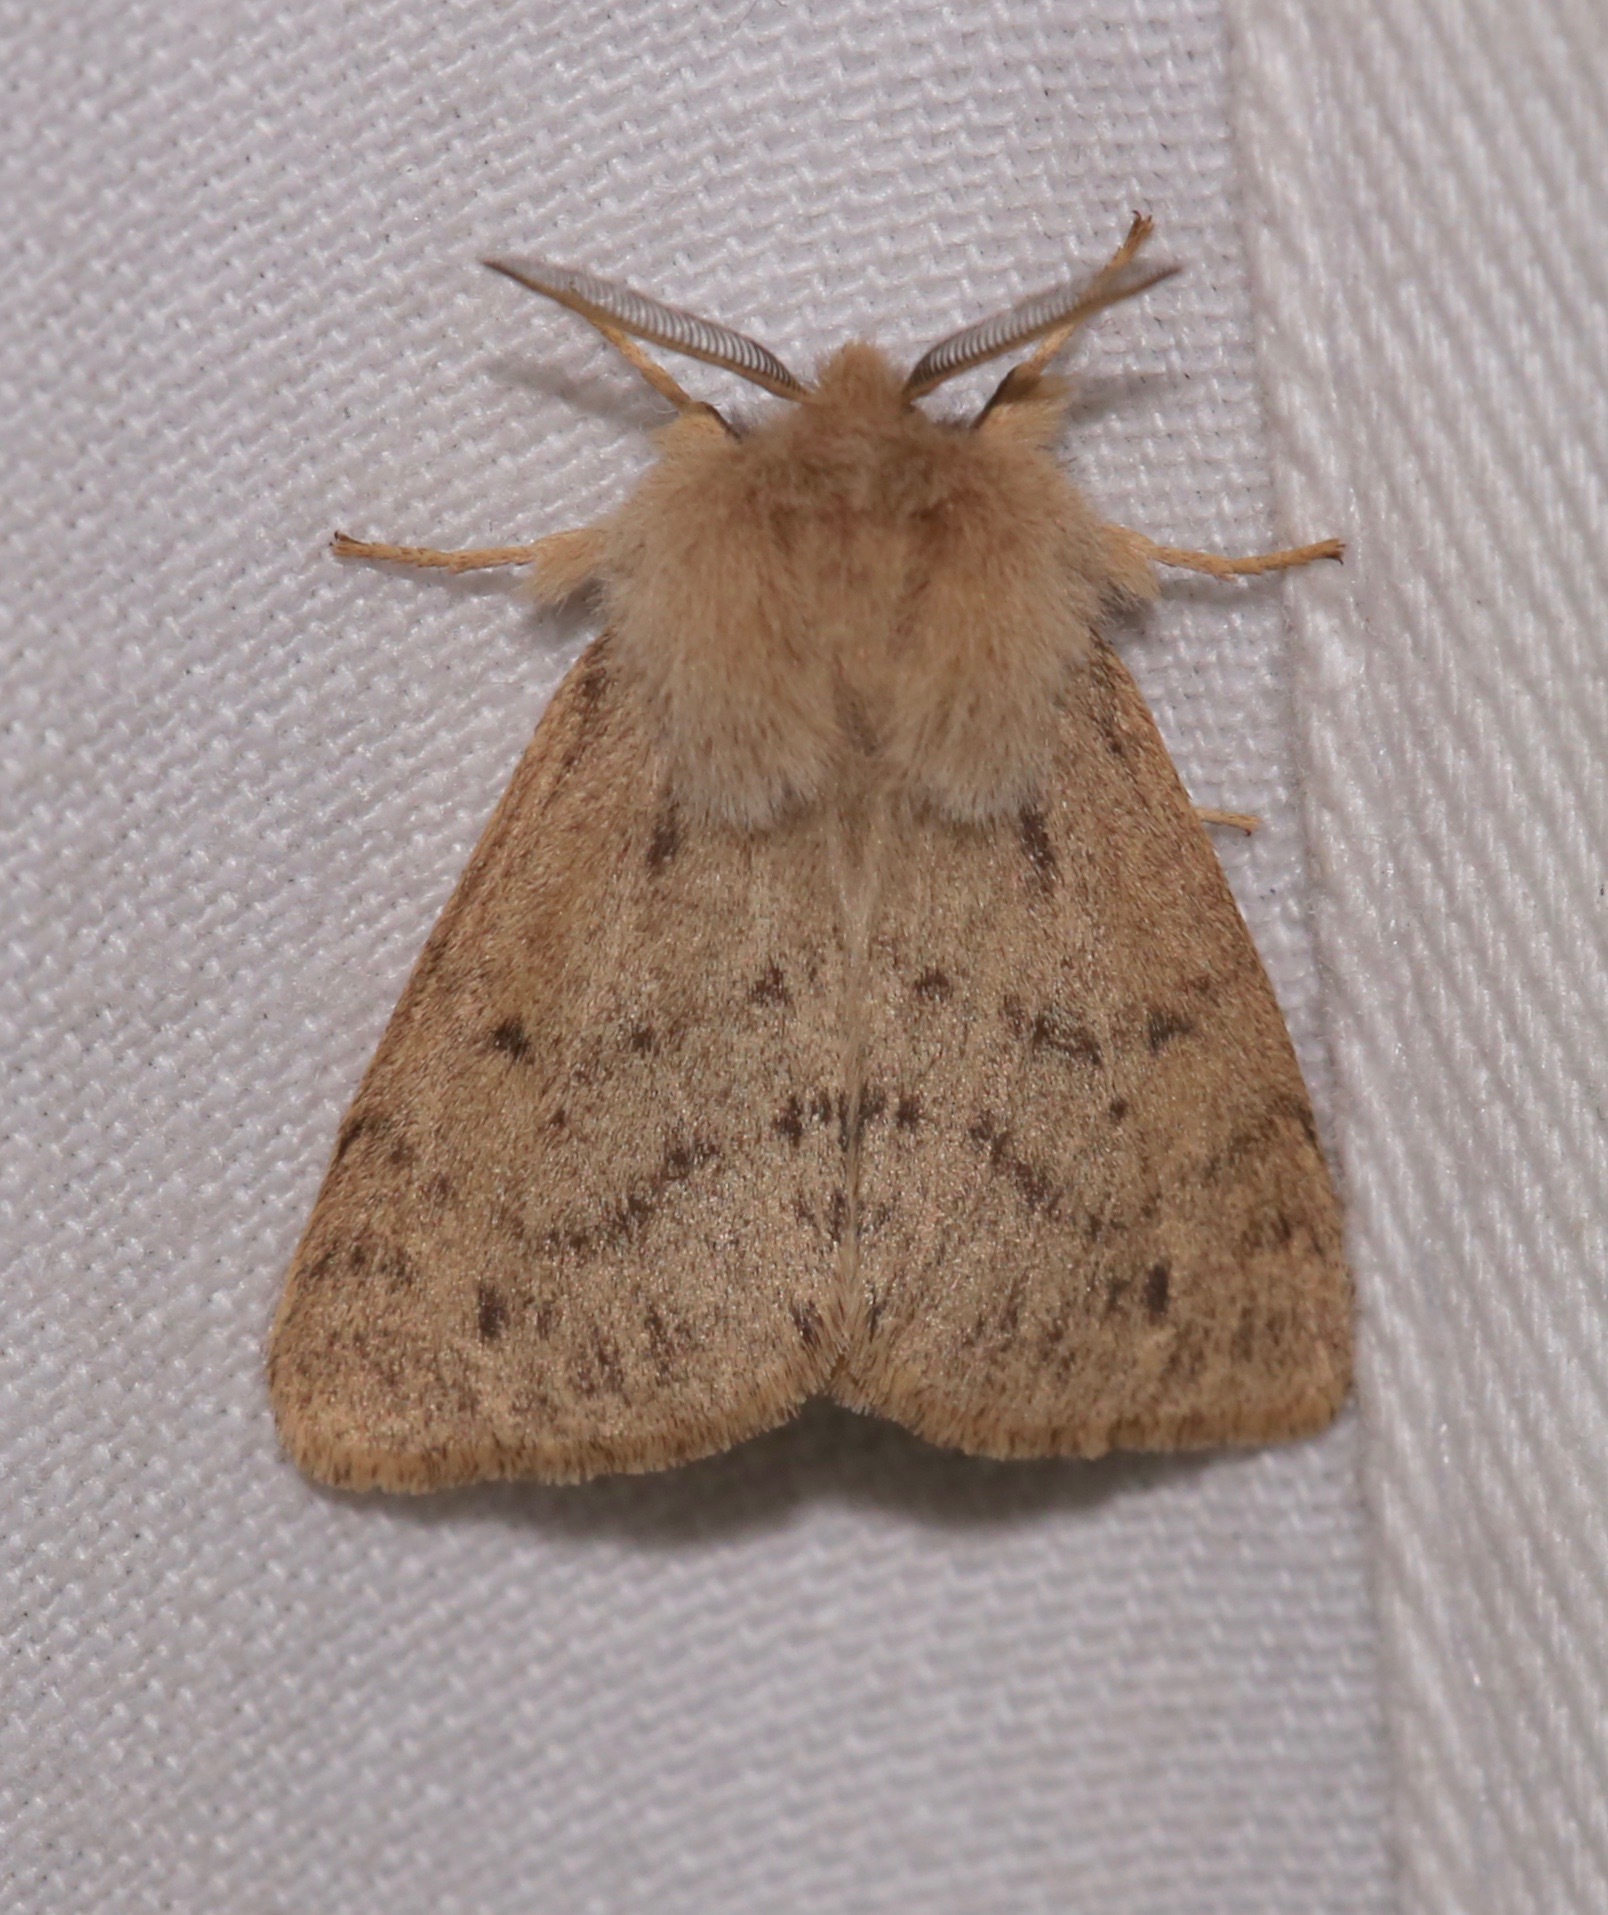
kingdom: Animalia
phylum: Arthropoda
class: Insecta
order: Lepidoptera
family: Erebidae
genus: Spilosoma
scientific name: Spilosoma vagans
